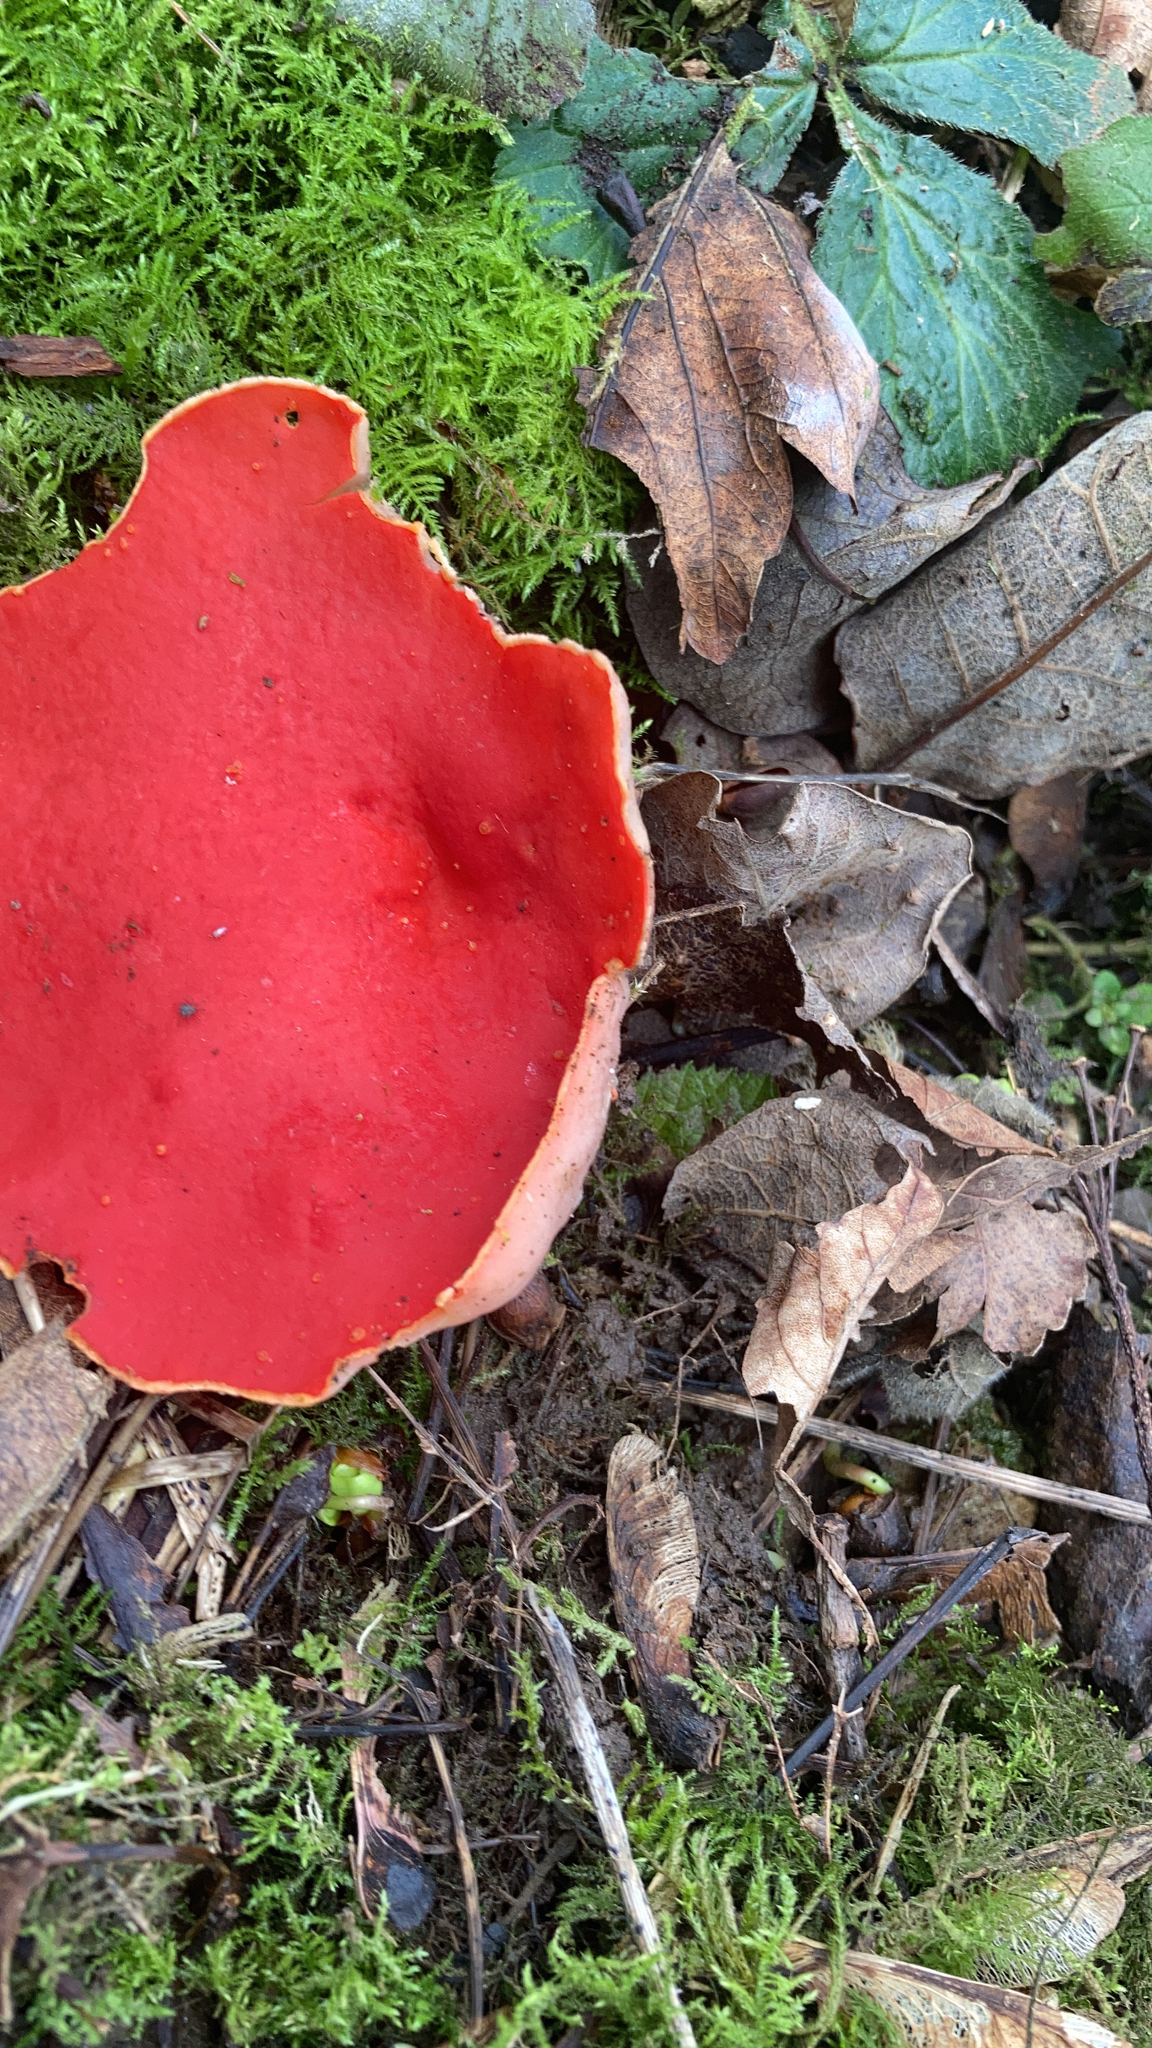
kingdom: Fungi
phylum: Ascomycota
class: Pezizomycetes
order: Pezizales
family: Sarcoscyphaceae
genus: Sarcoscypha
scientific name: Sarcoscypha
